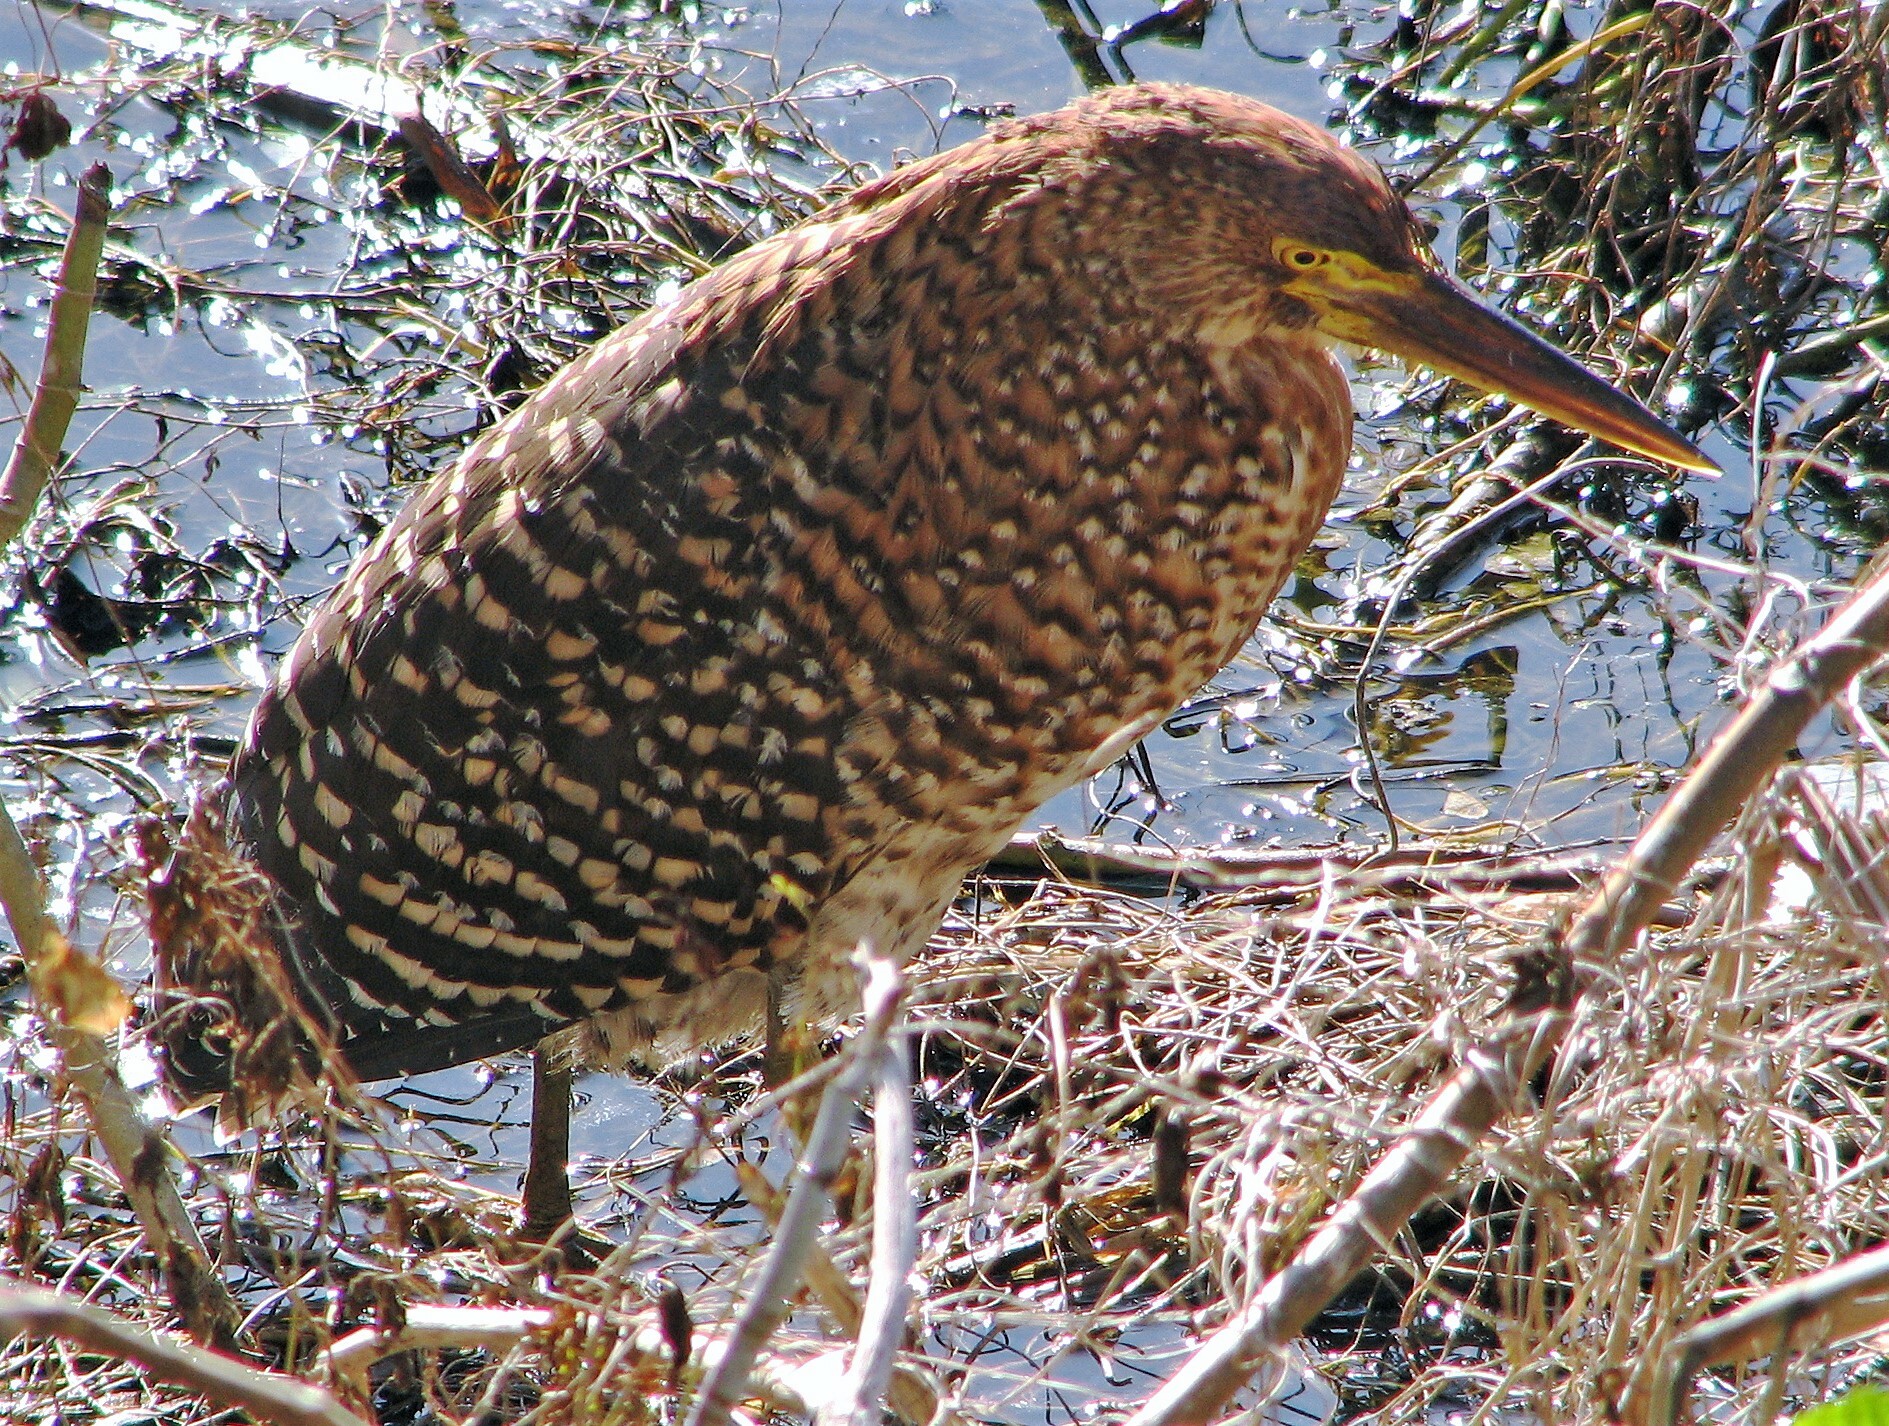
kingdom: Animalia
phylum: Chordata
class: Aves
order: Pelecaniformes
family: Ardeidae
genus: Tigrisoma
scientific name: Tigrisoma lineatum
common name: Rufescent tiger-heron
